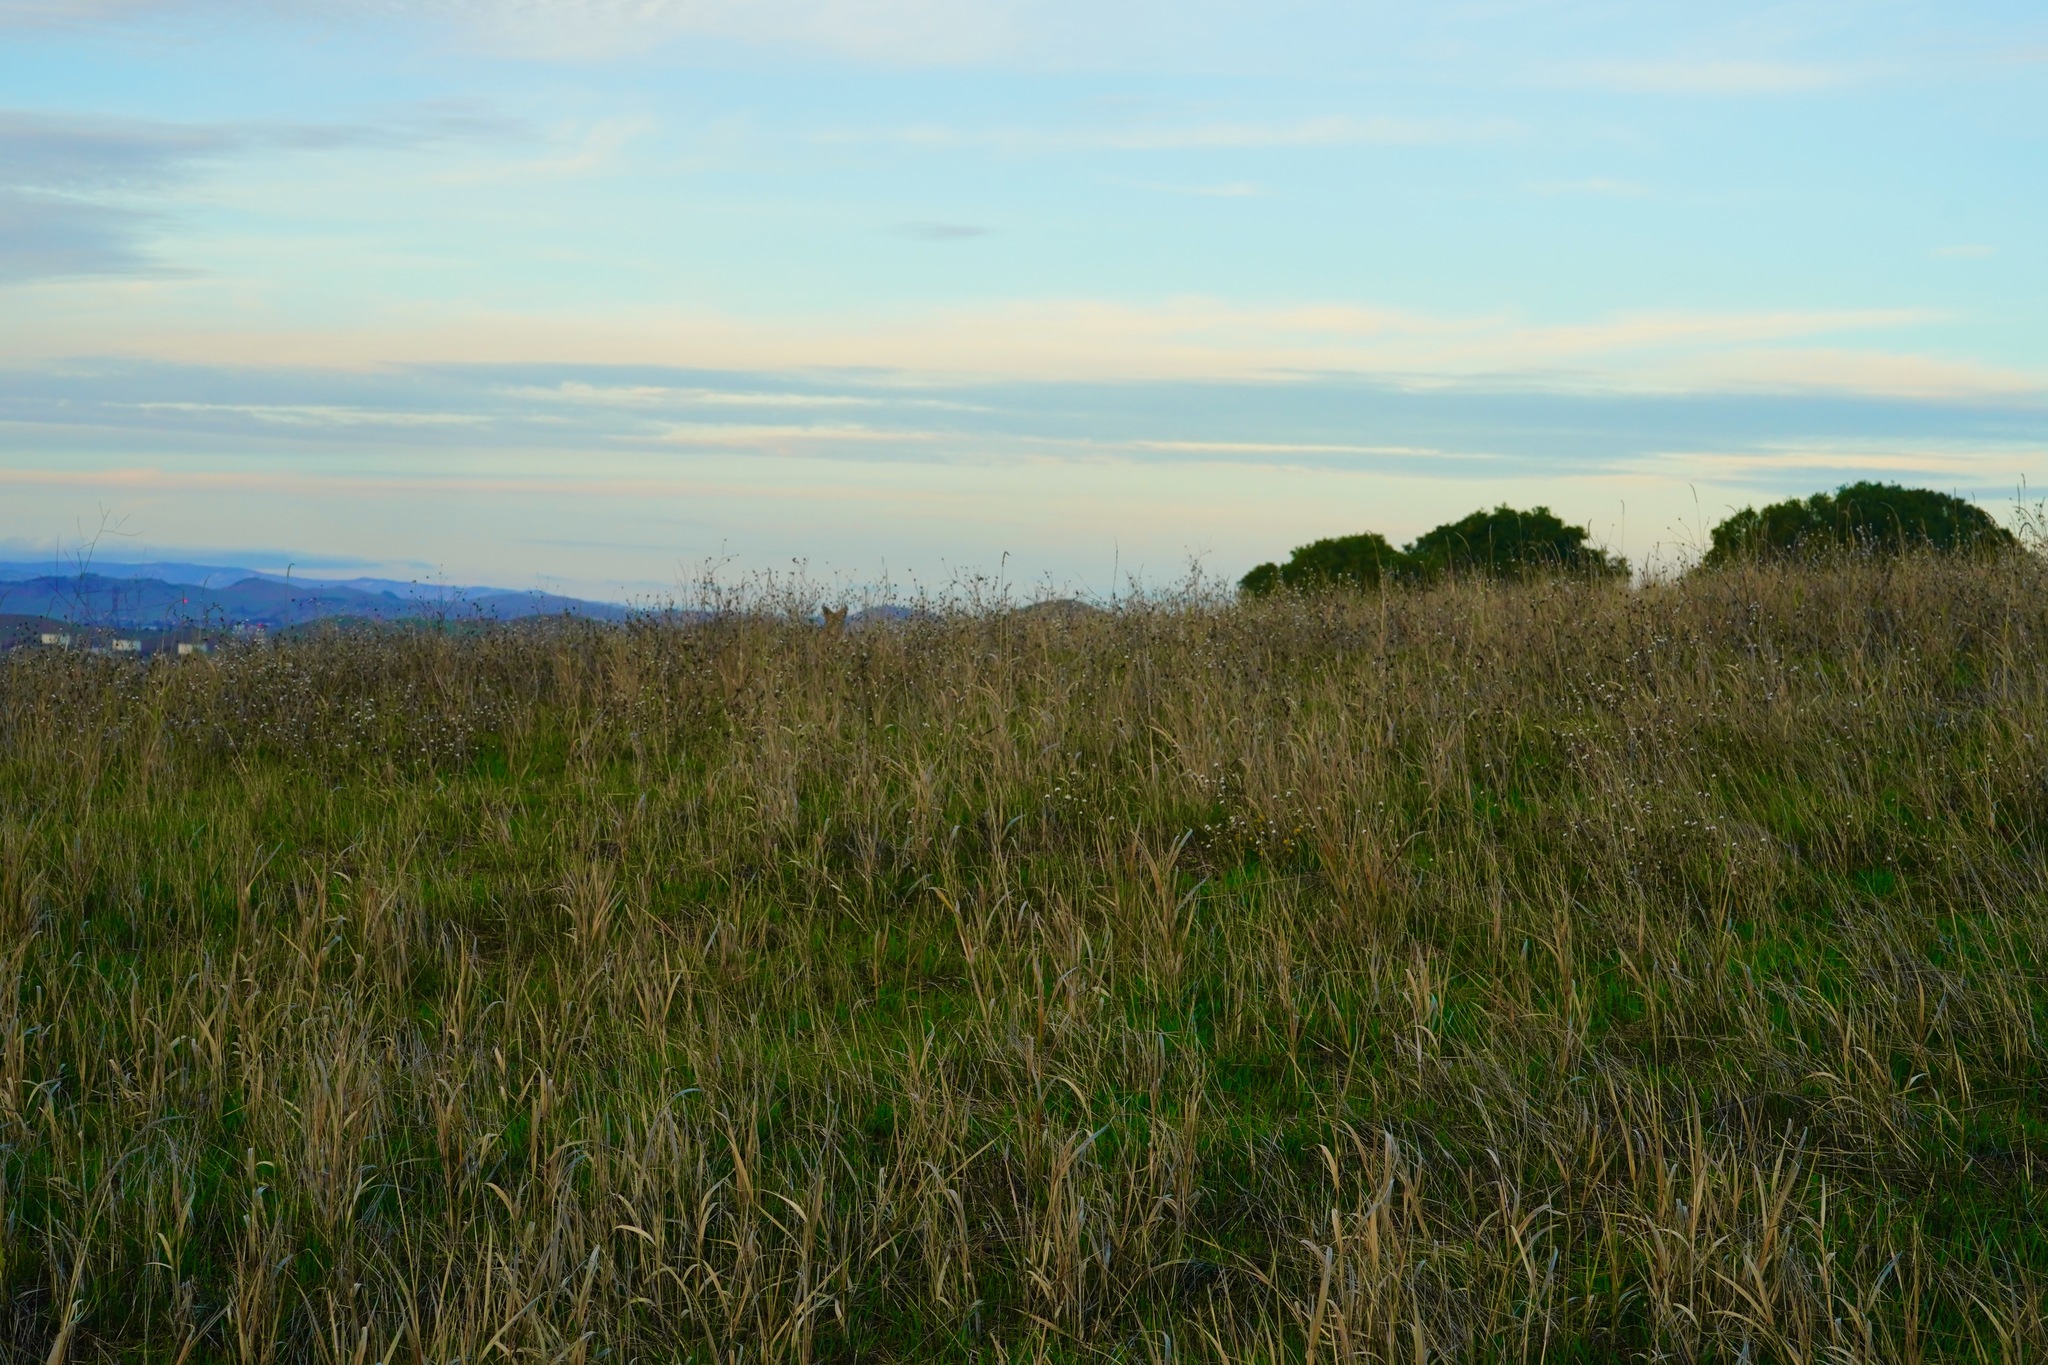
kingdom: Animalia
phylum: Chordata
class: Mammalia
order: Carnivora
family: Canidae
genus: Canis
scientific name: Canis latrans
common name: Coyote
